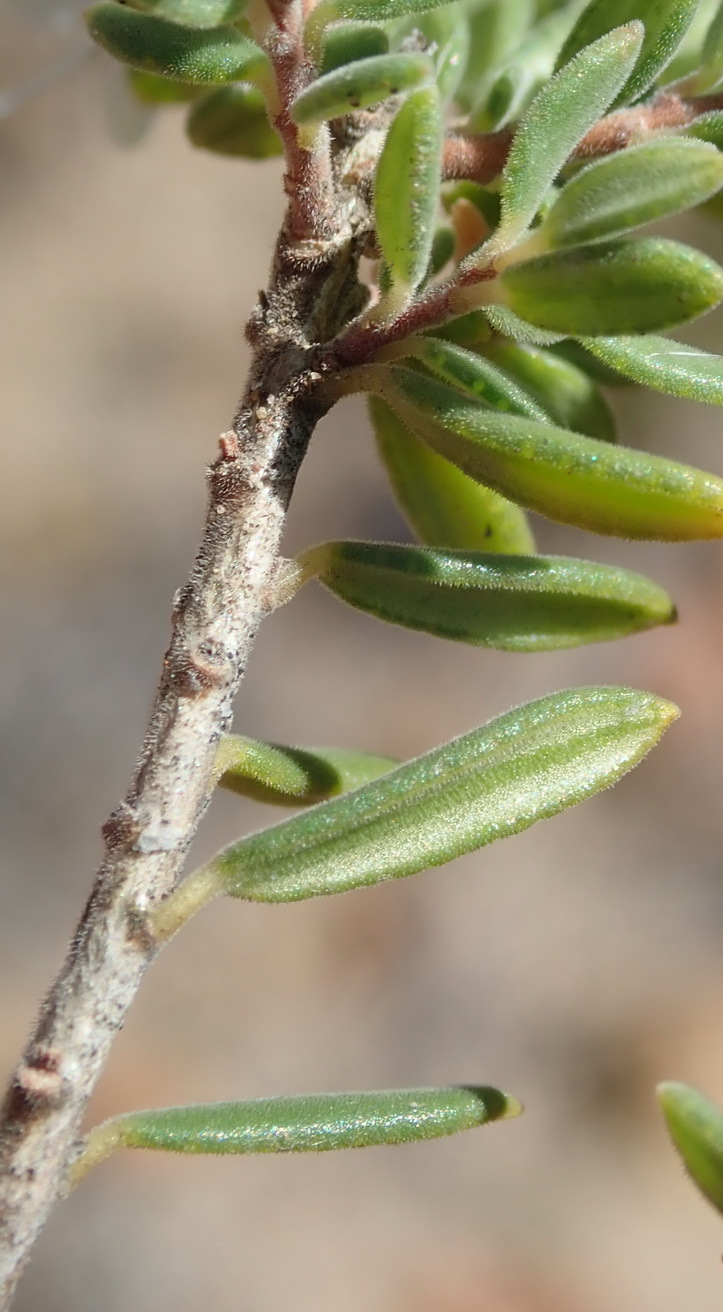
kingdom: Plantae
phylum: Tracheophyta
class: Magnoliopsida
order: Sapindales
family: Rutaceae
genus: Agathosma
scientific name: Agathosma mundtii
